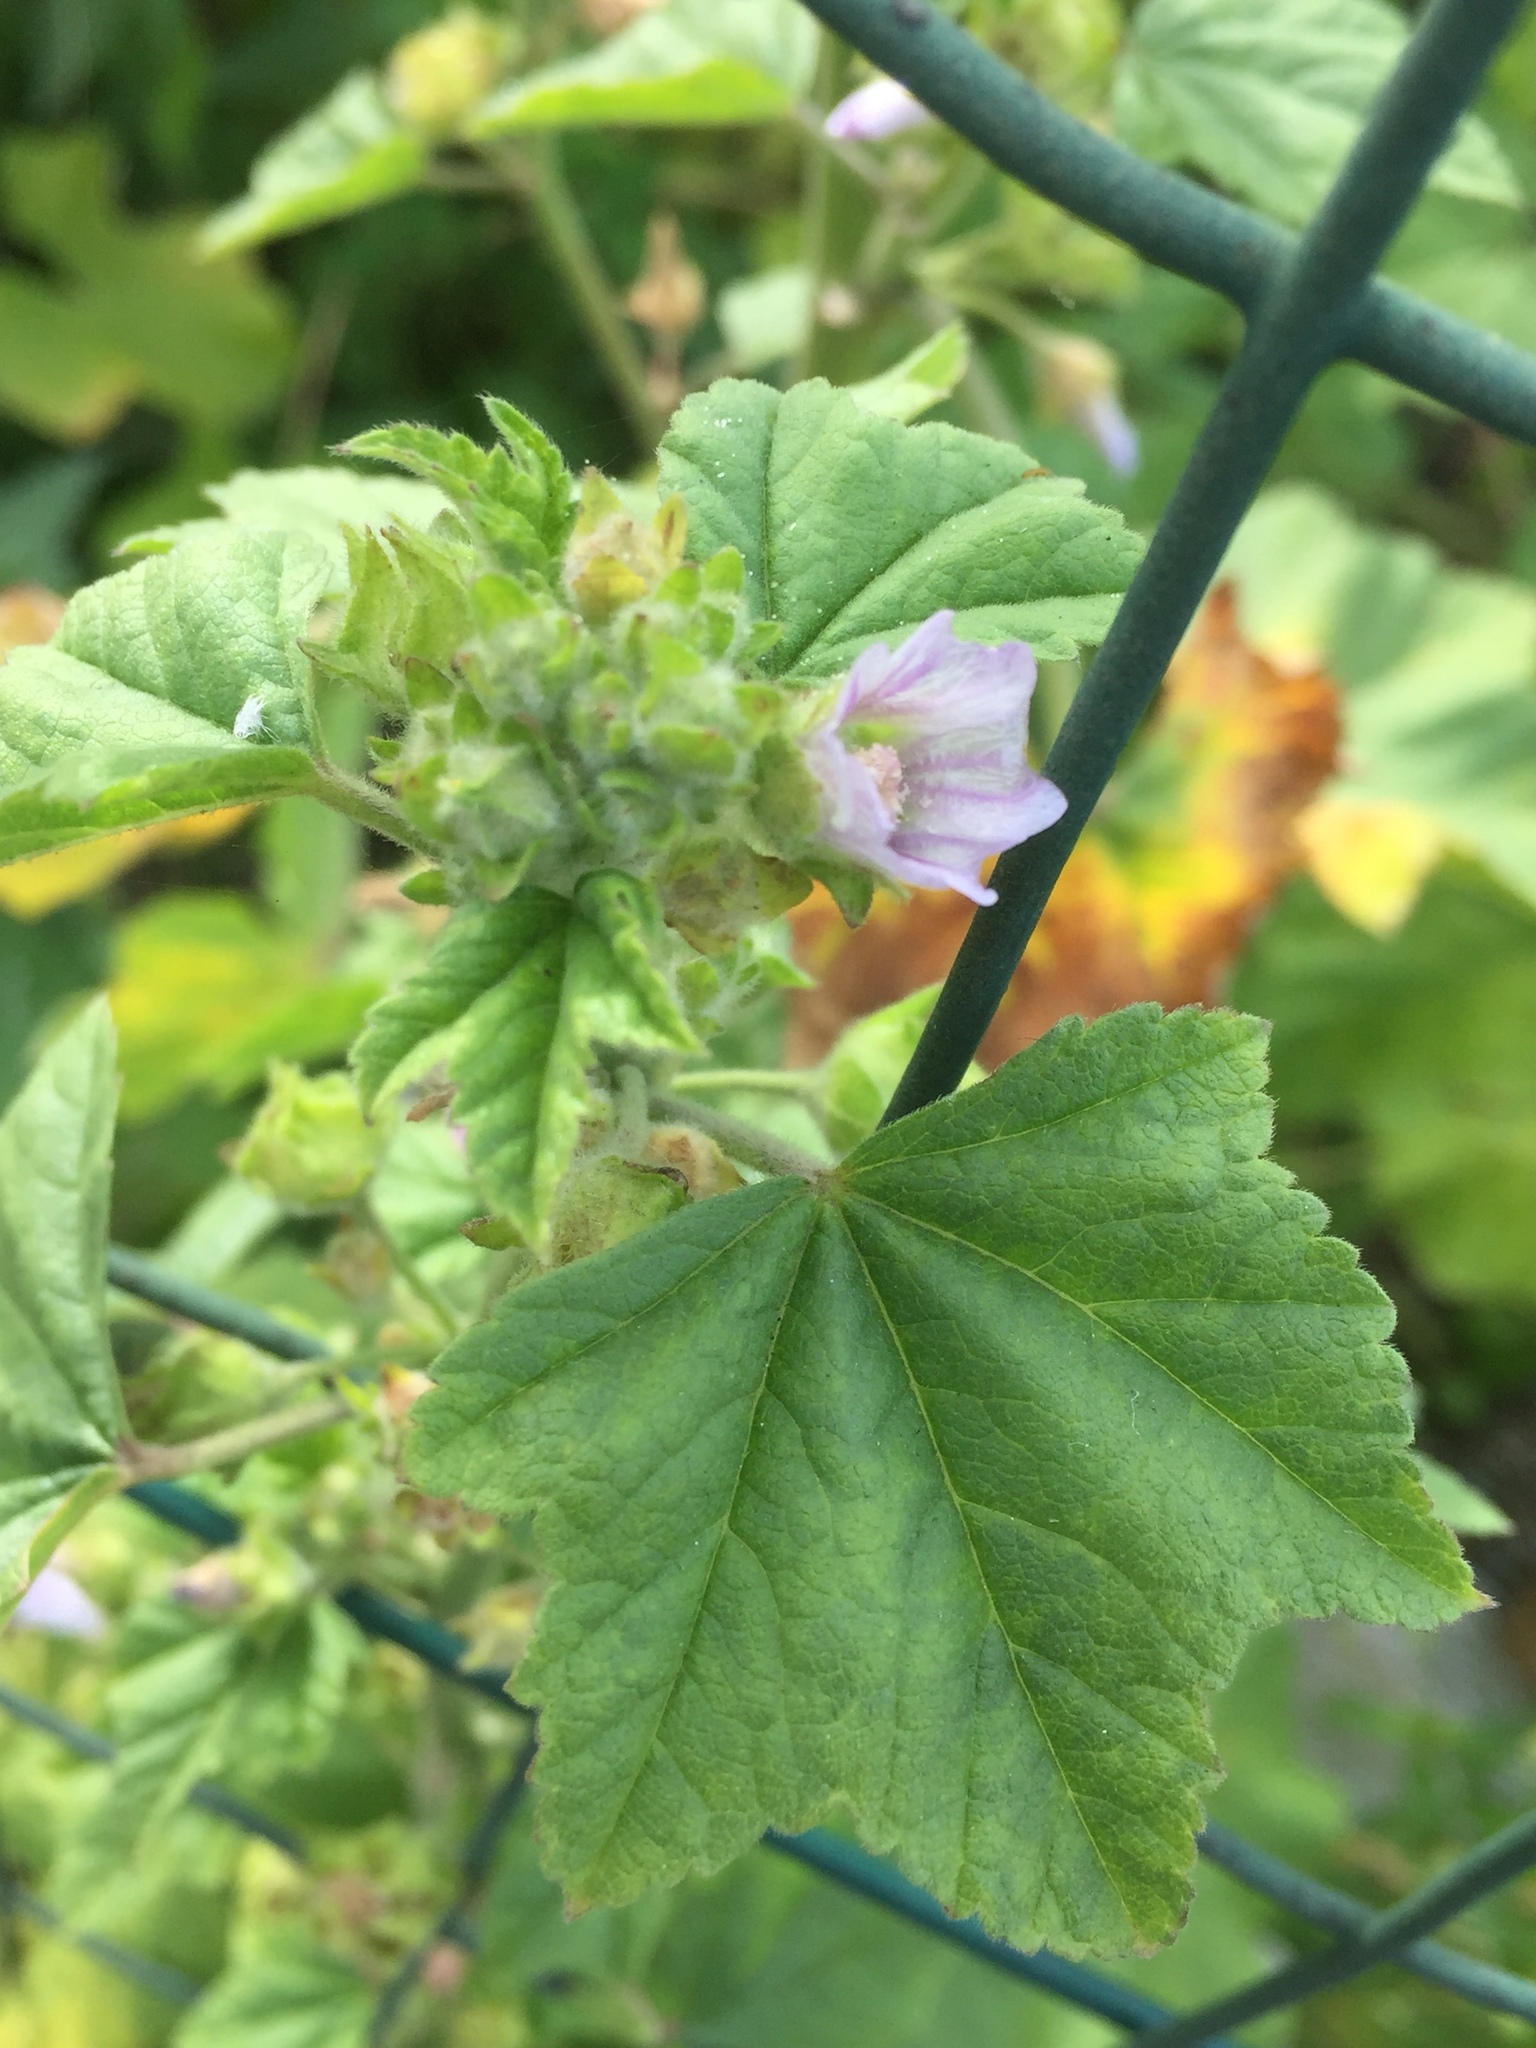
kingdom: Plantae
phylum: Tracheophyta
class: Magnoliopsida
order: Malvales
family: Malvaceae
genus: Malva
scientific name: Malva multiflora
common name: Cheeseweed
